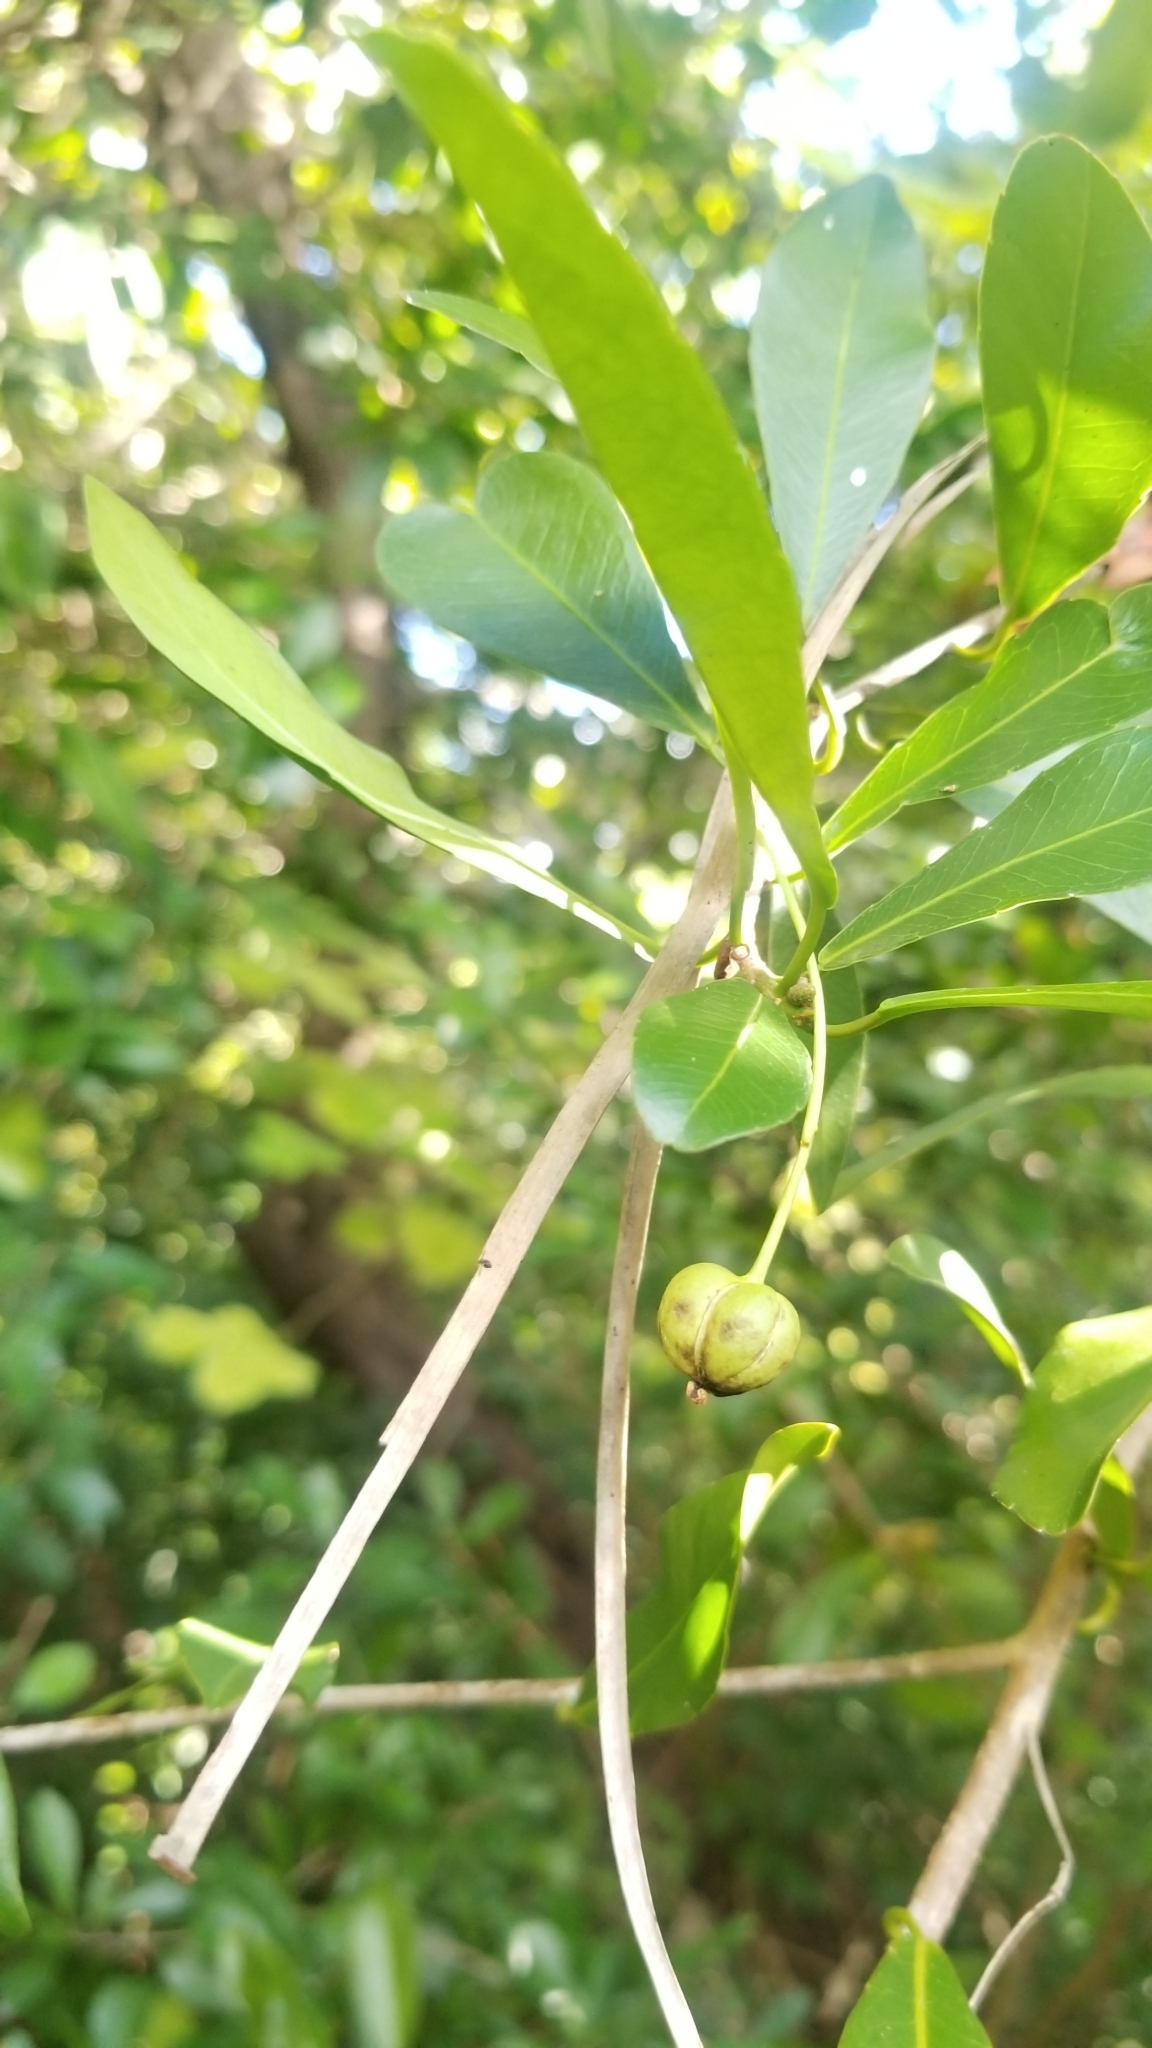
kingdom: Plantae
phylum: Tracheophyta
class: Magnoliopsida
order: Malpighiales
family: Euphorbiaceae
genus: Gymnanthes
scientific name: Gymnanthes lucida
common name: Oysterwood
